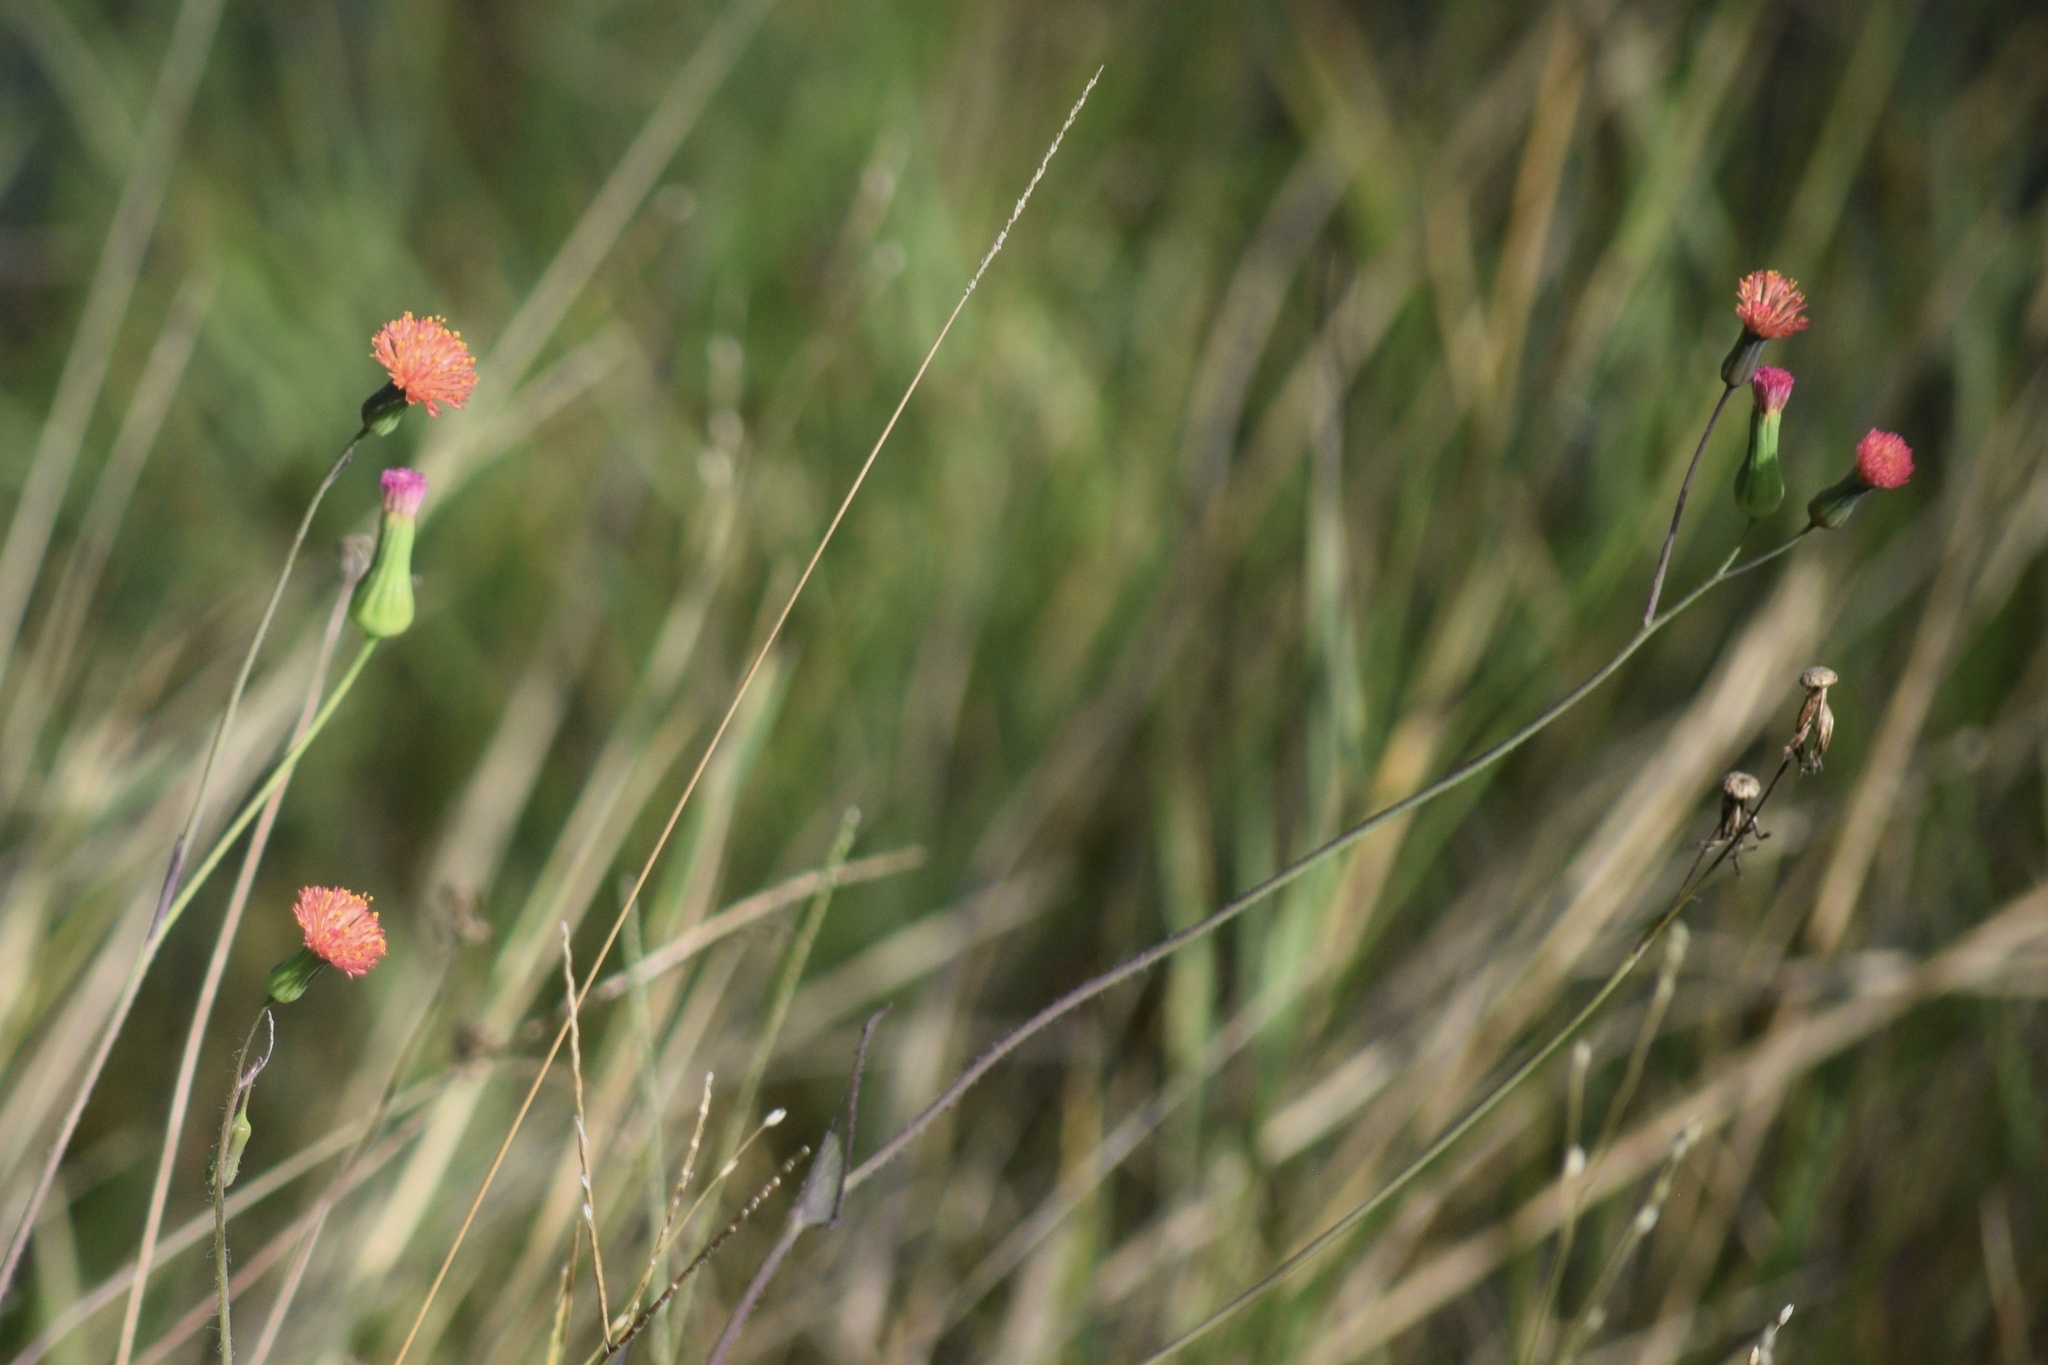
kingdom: Plantae
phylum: Tracheophyta
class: Magnoliopsida
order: Asterales
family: Asteraceae
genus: Emilia
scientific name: Emilia fosbergii
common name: Florida tasselflower
